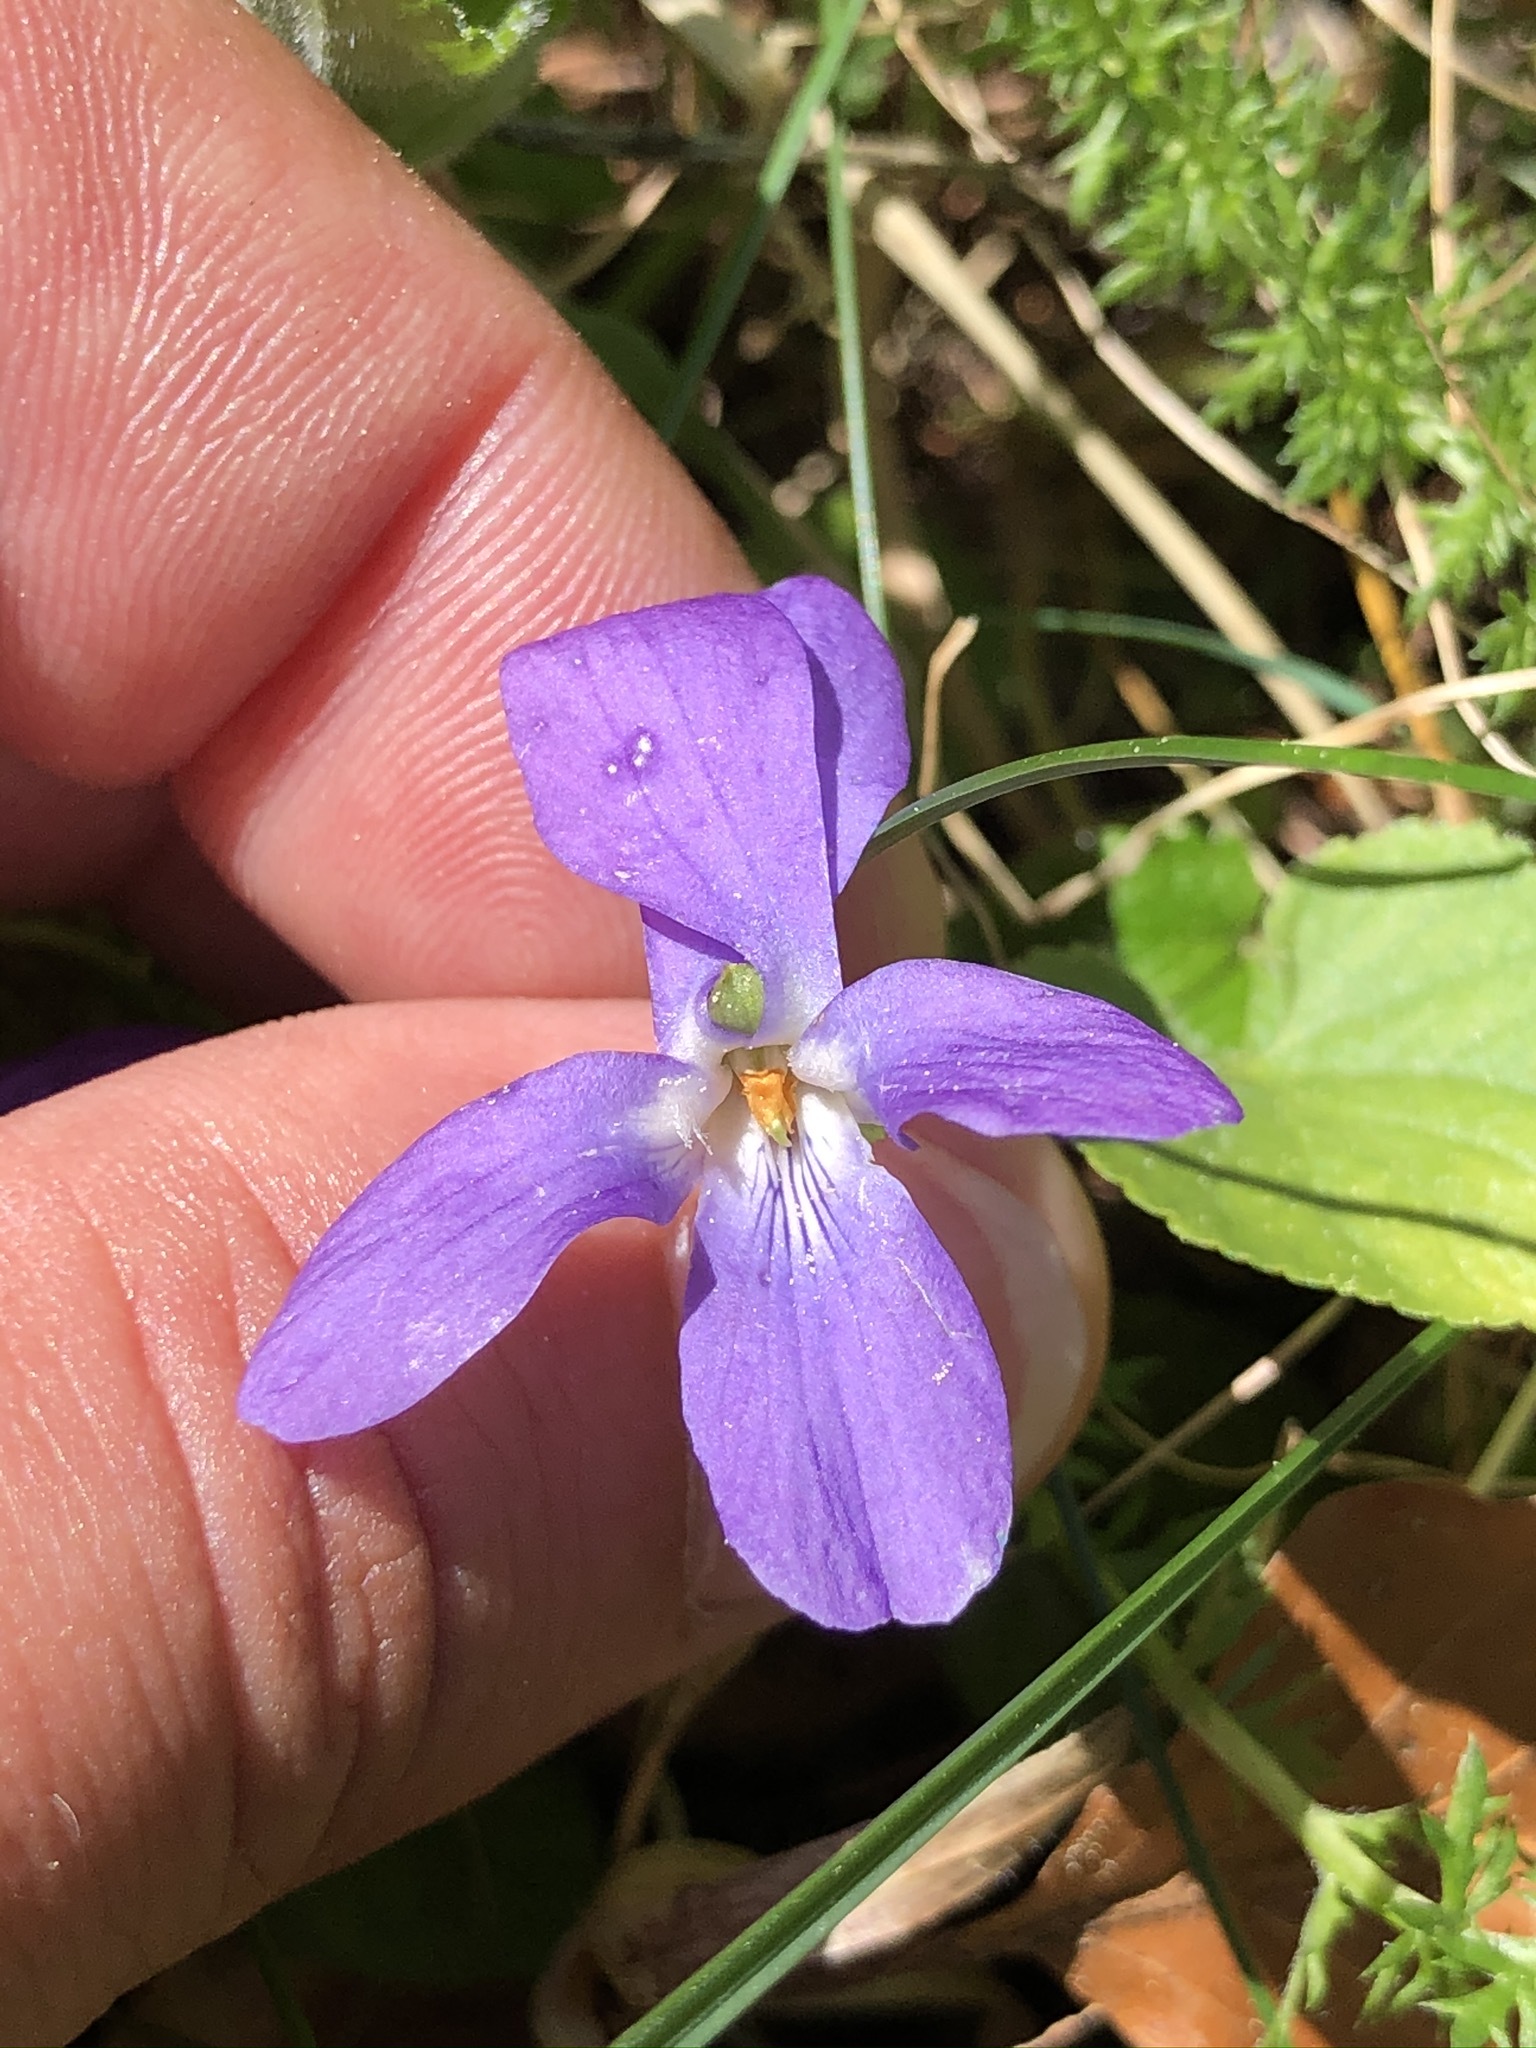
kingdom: Plantae
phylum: Tracheophyta
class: Magnoliopsida
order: Malpighiales
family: Violaceae
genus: Viola
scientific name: Viola hirta
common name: Hairy violet
